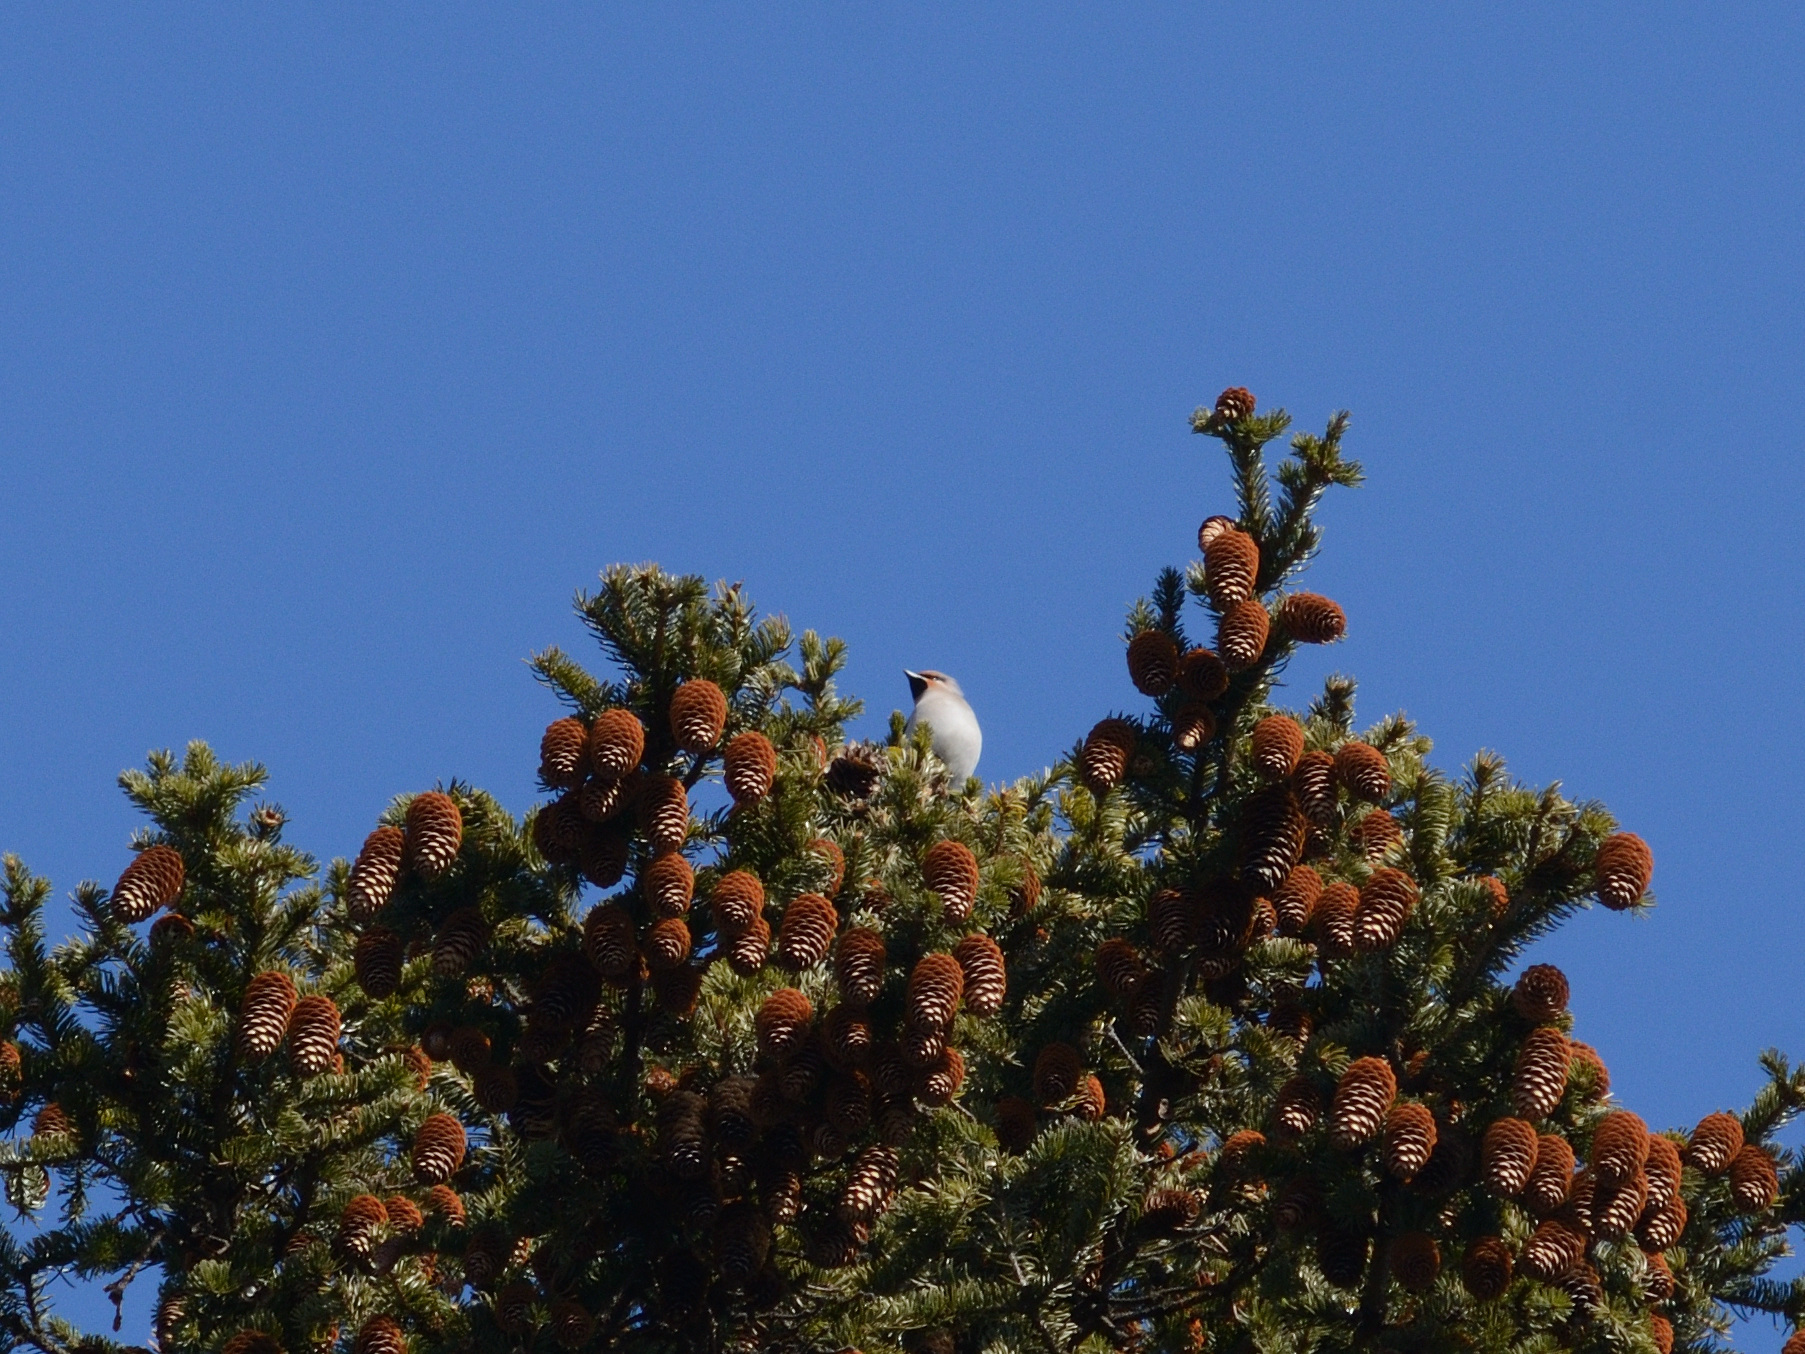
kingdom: Animalia
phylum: Chordata
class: Aves
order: Passeriformes
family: Bombycillidae
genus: Bombycilla
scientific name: Bombycilla garrulus
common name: Bohemian waxwing
